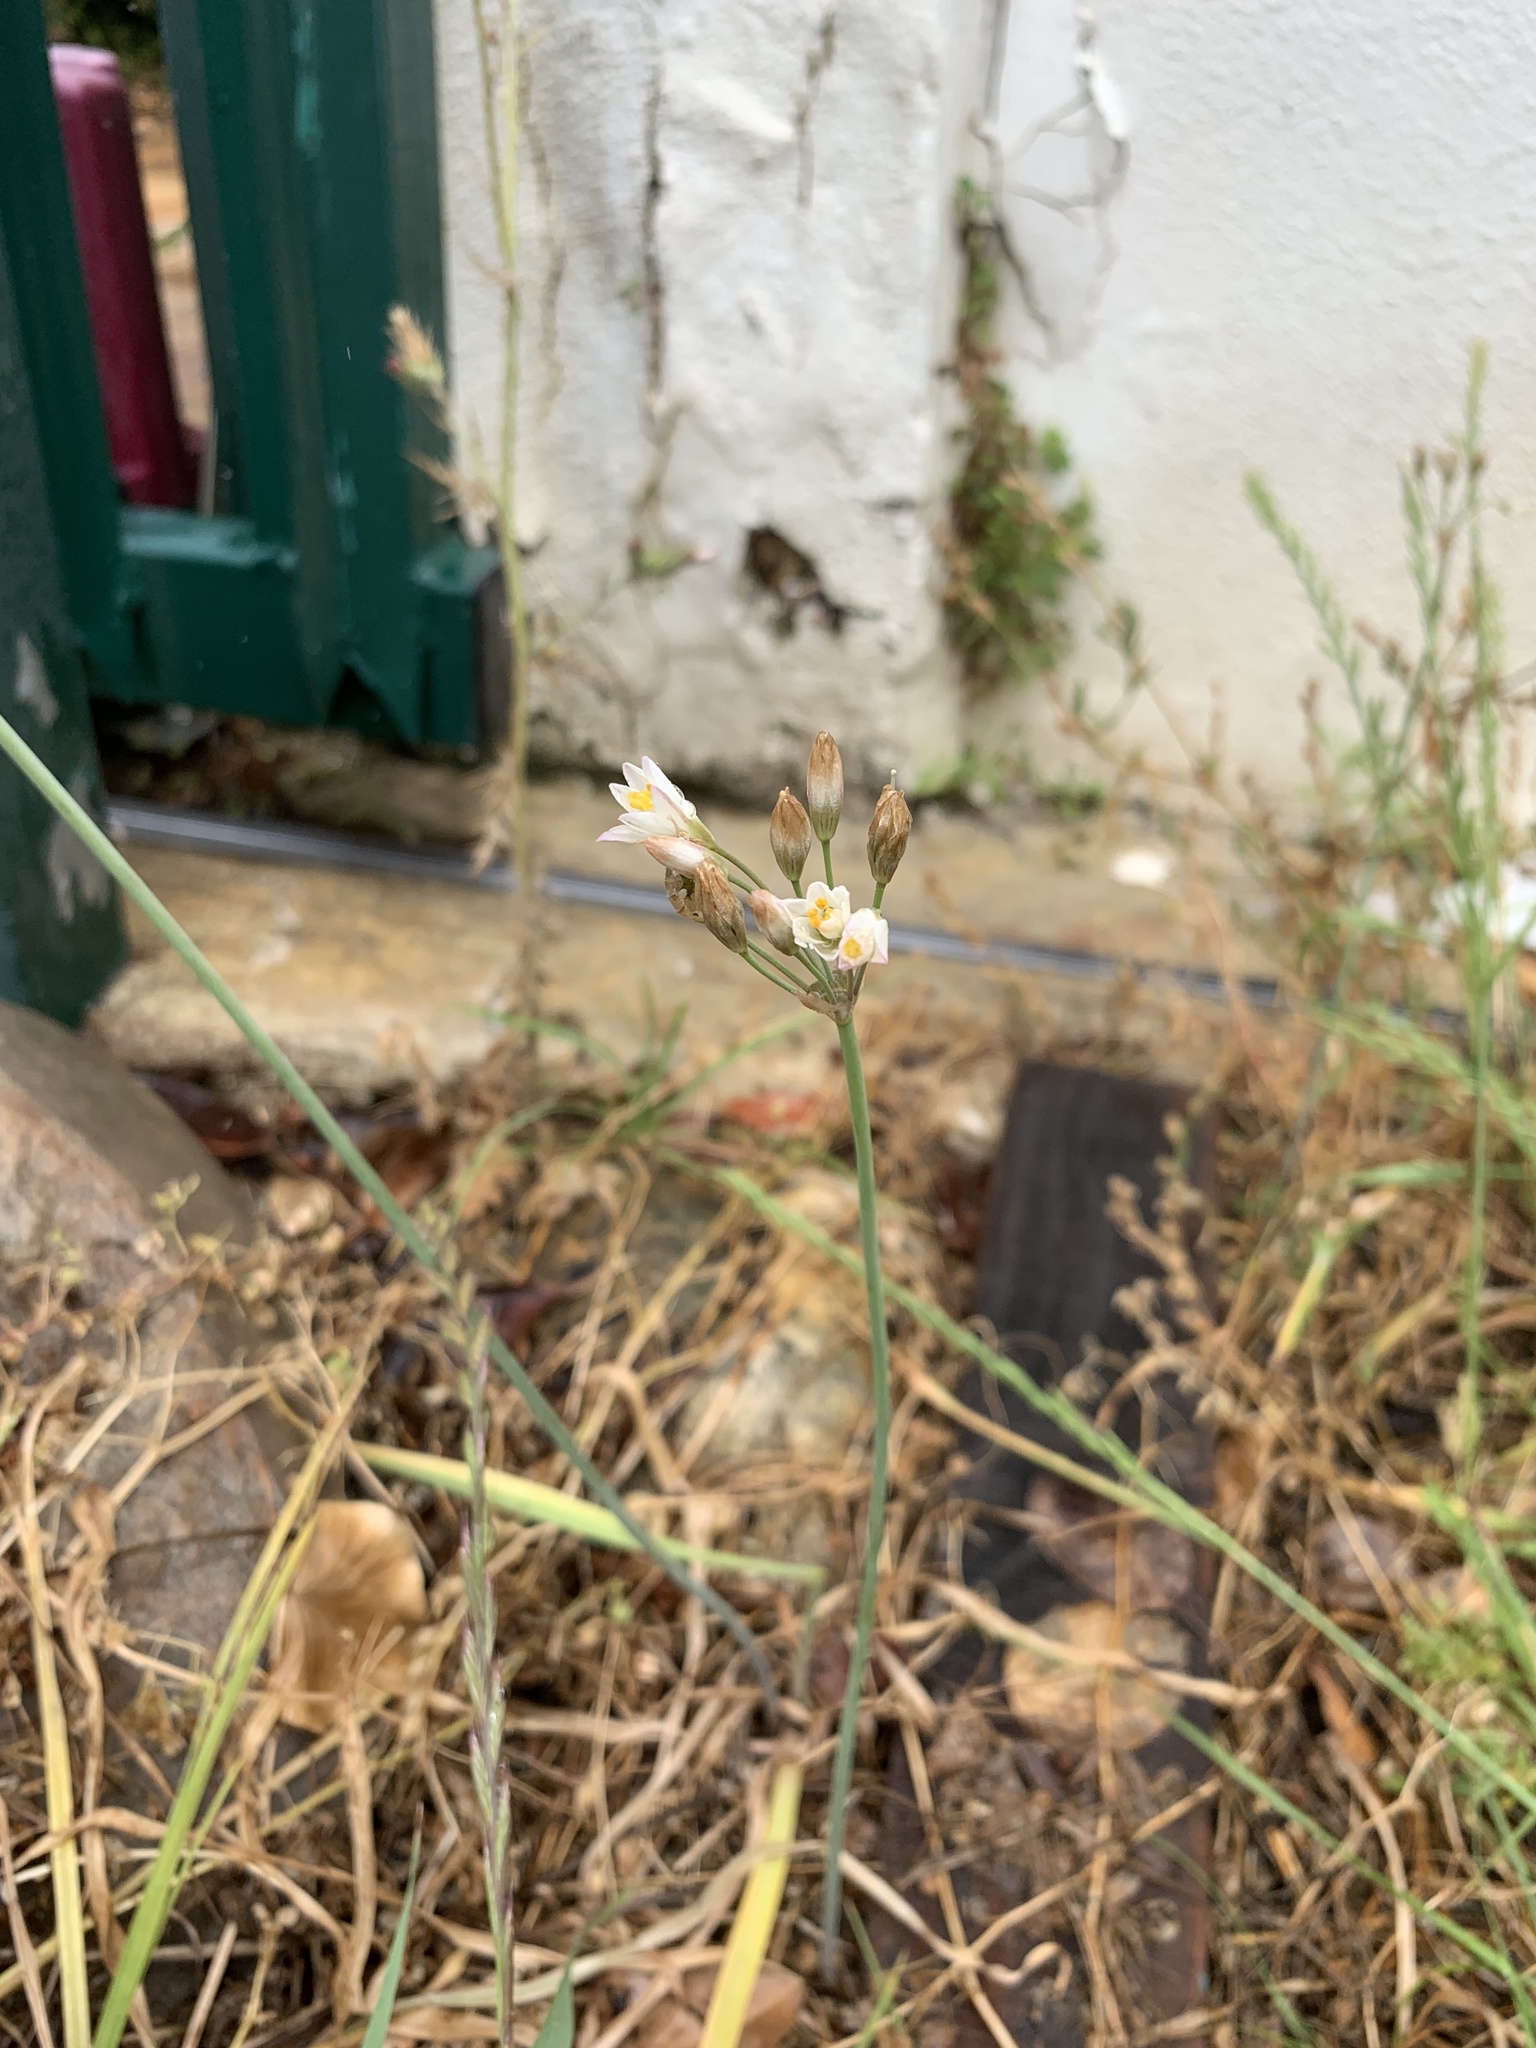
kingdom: Plantae
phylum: Tracheophyta
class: Liliopsida
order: Asparagales
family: Amaryllidaceae
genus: Nothoscordum
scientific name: Nothoscordum gracile
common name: Slender false garlic
